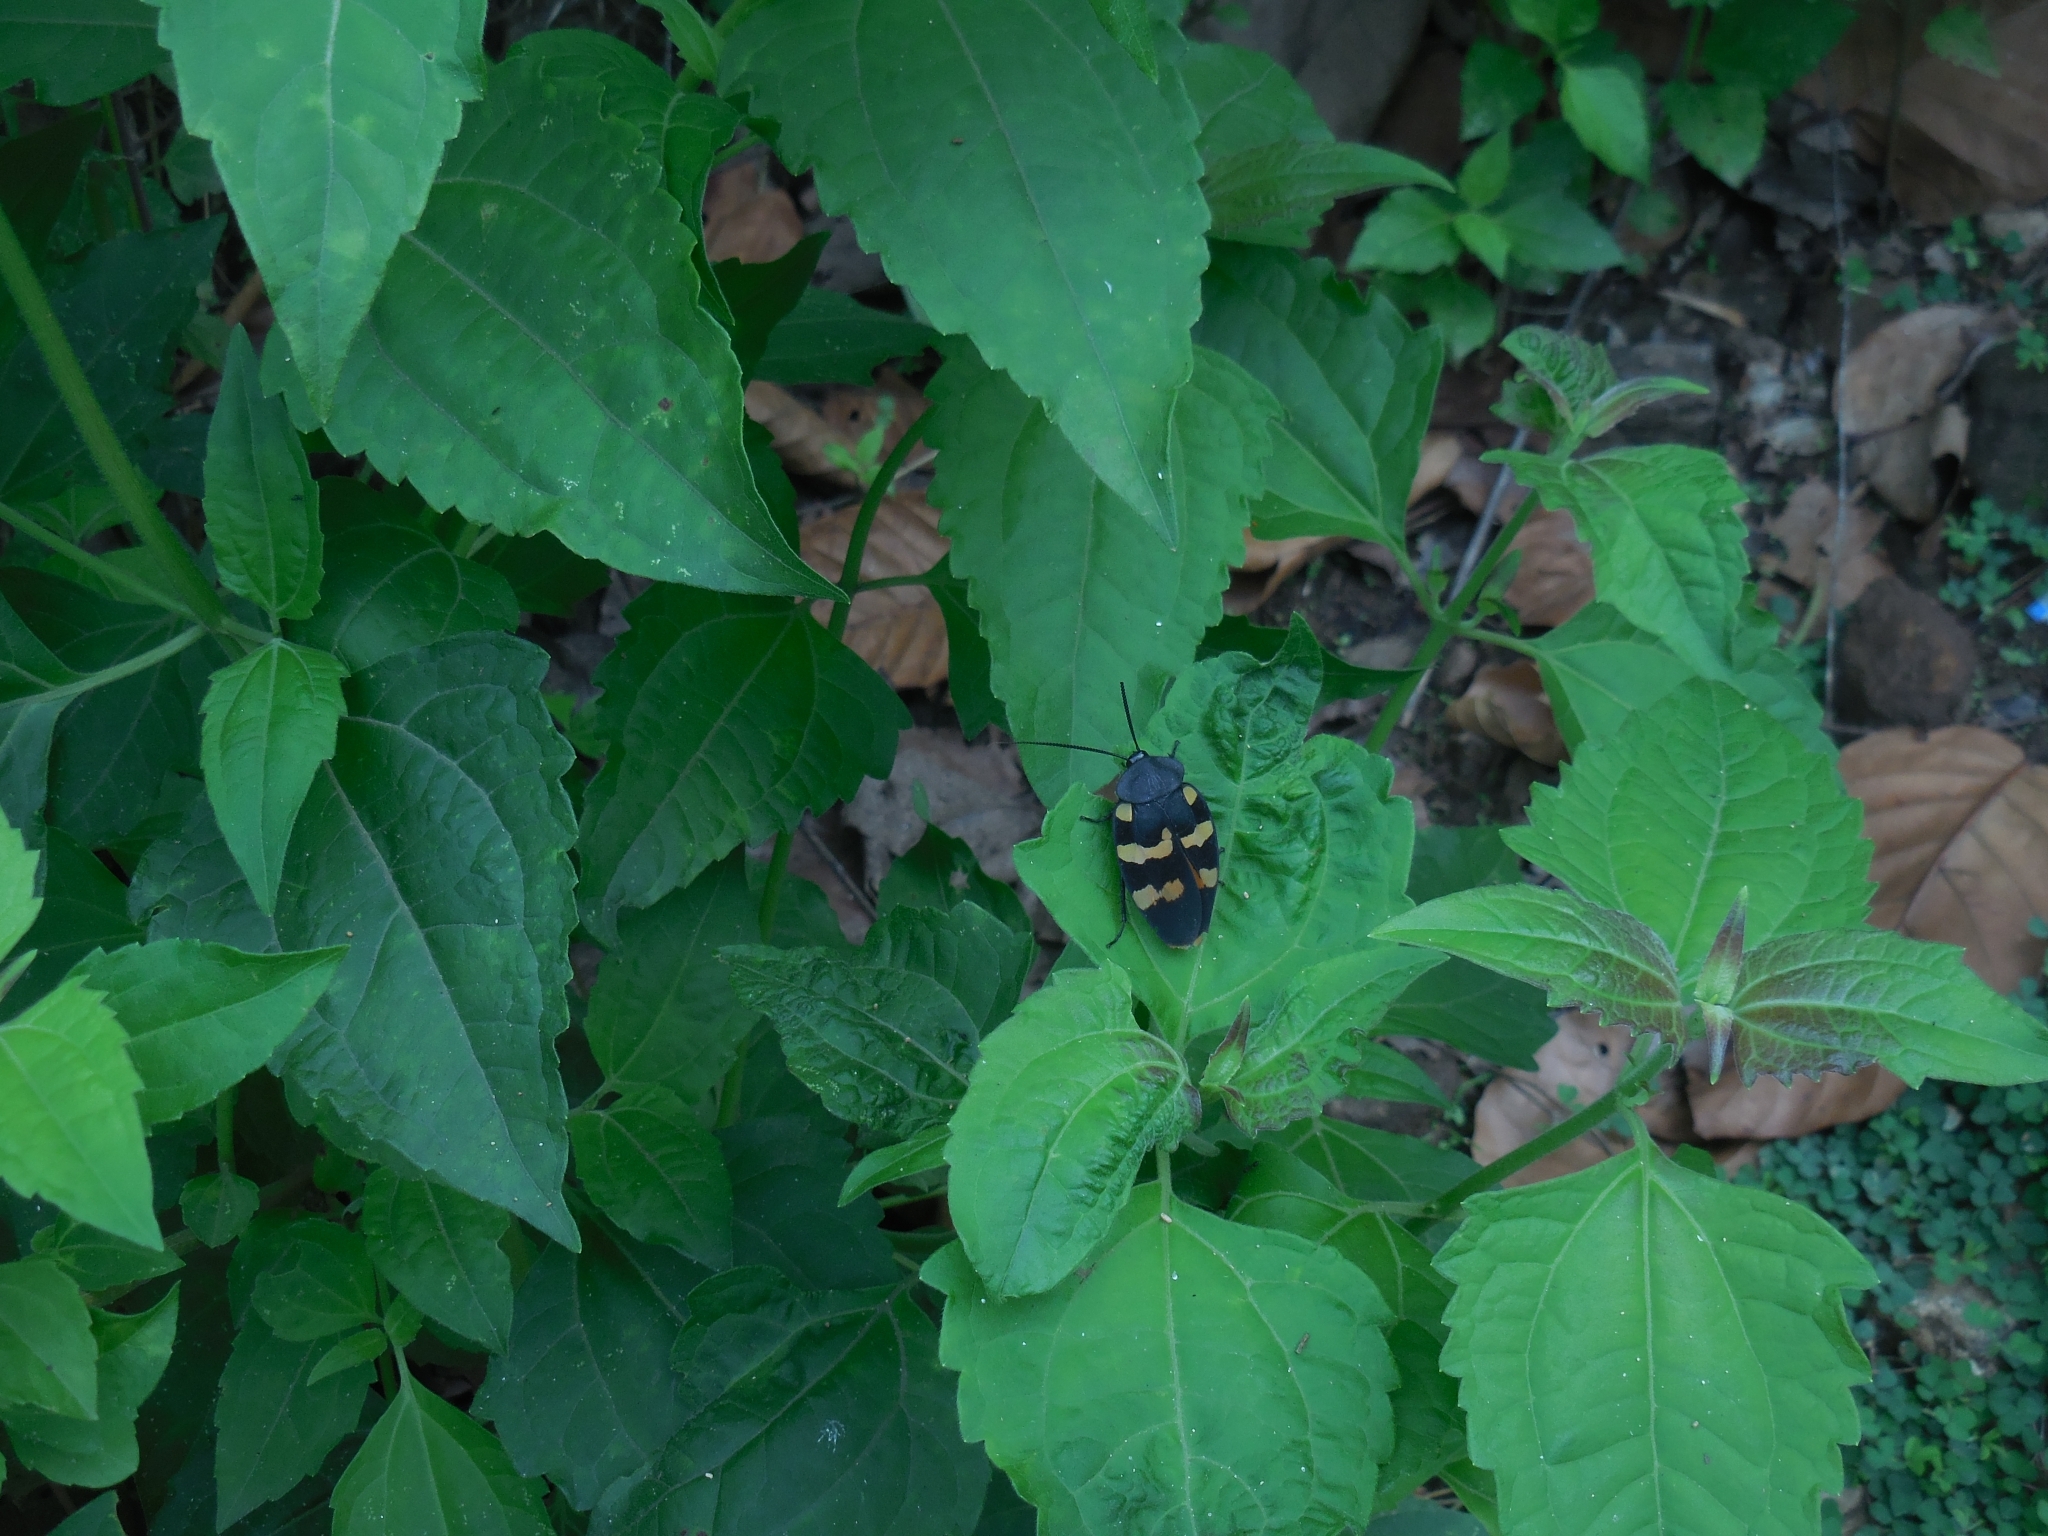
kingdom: Animalia
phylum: Arthropoda
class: Insecta
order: Blattodea
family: Corydiidae
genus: Therea
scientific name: Therea nuptialis
